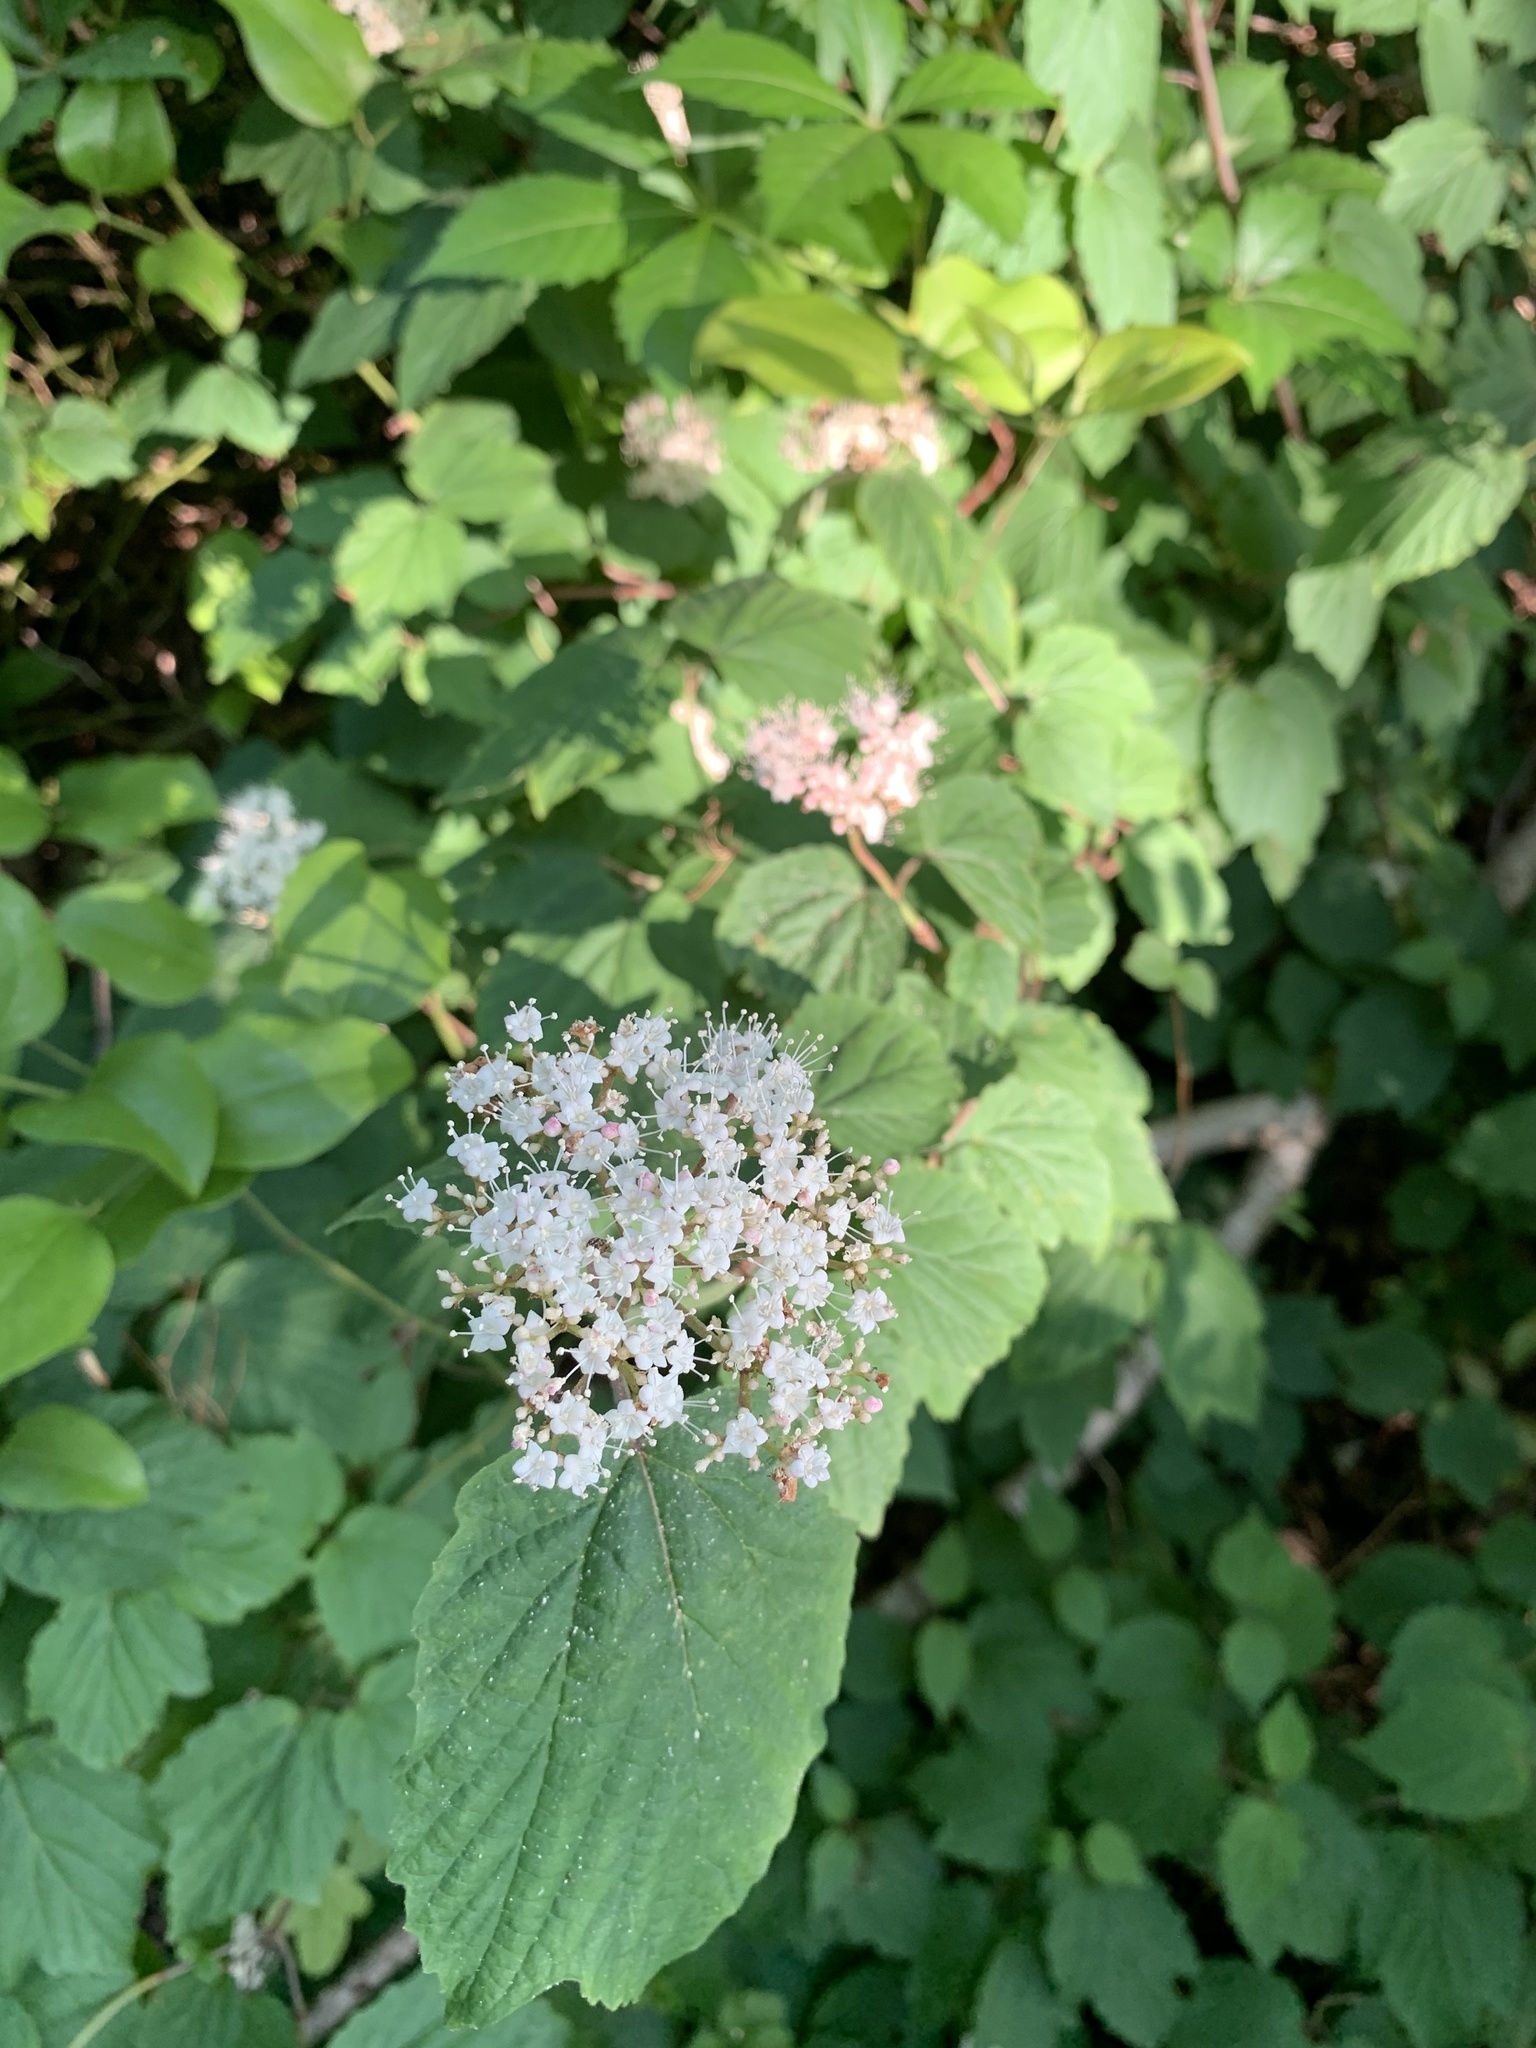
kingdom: Plantae
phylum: Tracheophyta
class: Magnoliopsida
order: Dipsacales
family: Viburnaceae
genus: Viburnum
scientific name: Viburnum acerifolium
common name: Dockmackie
